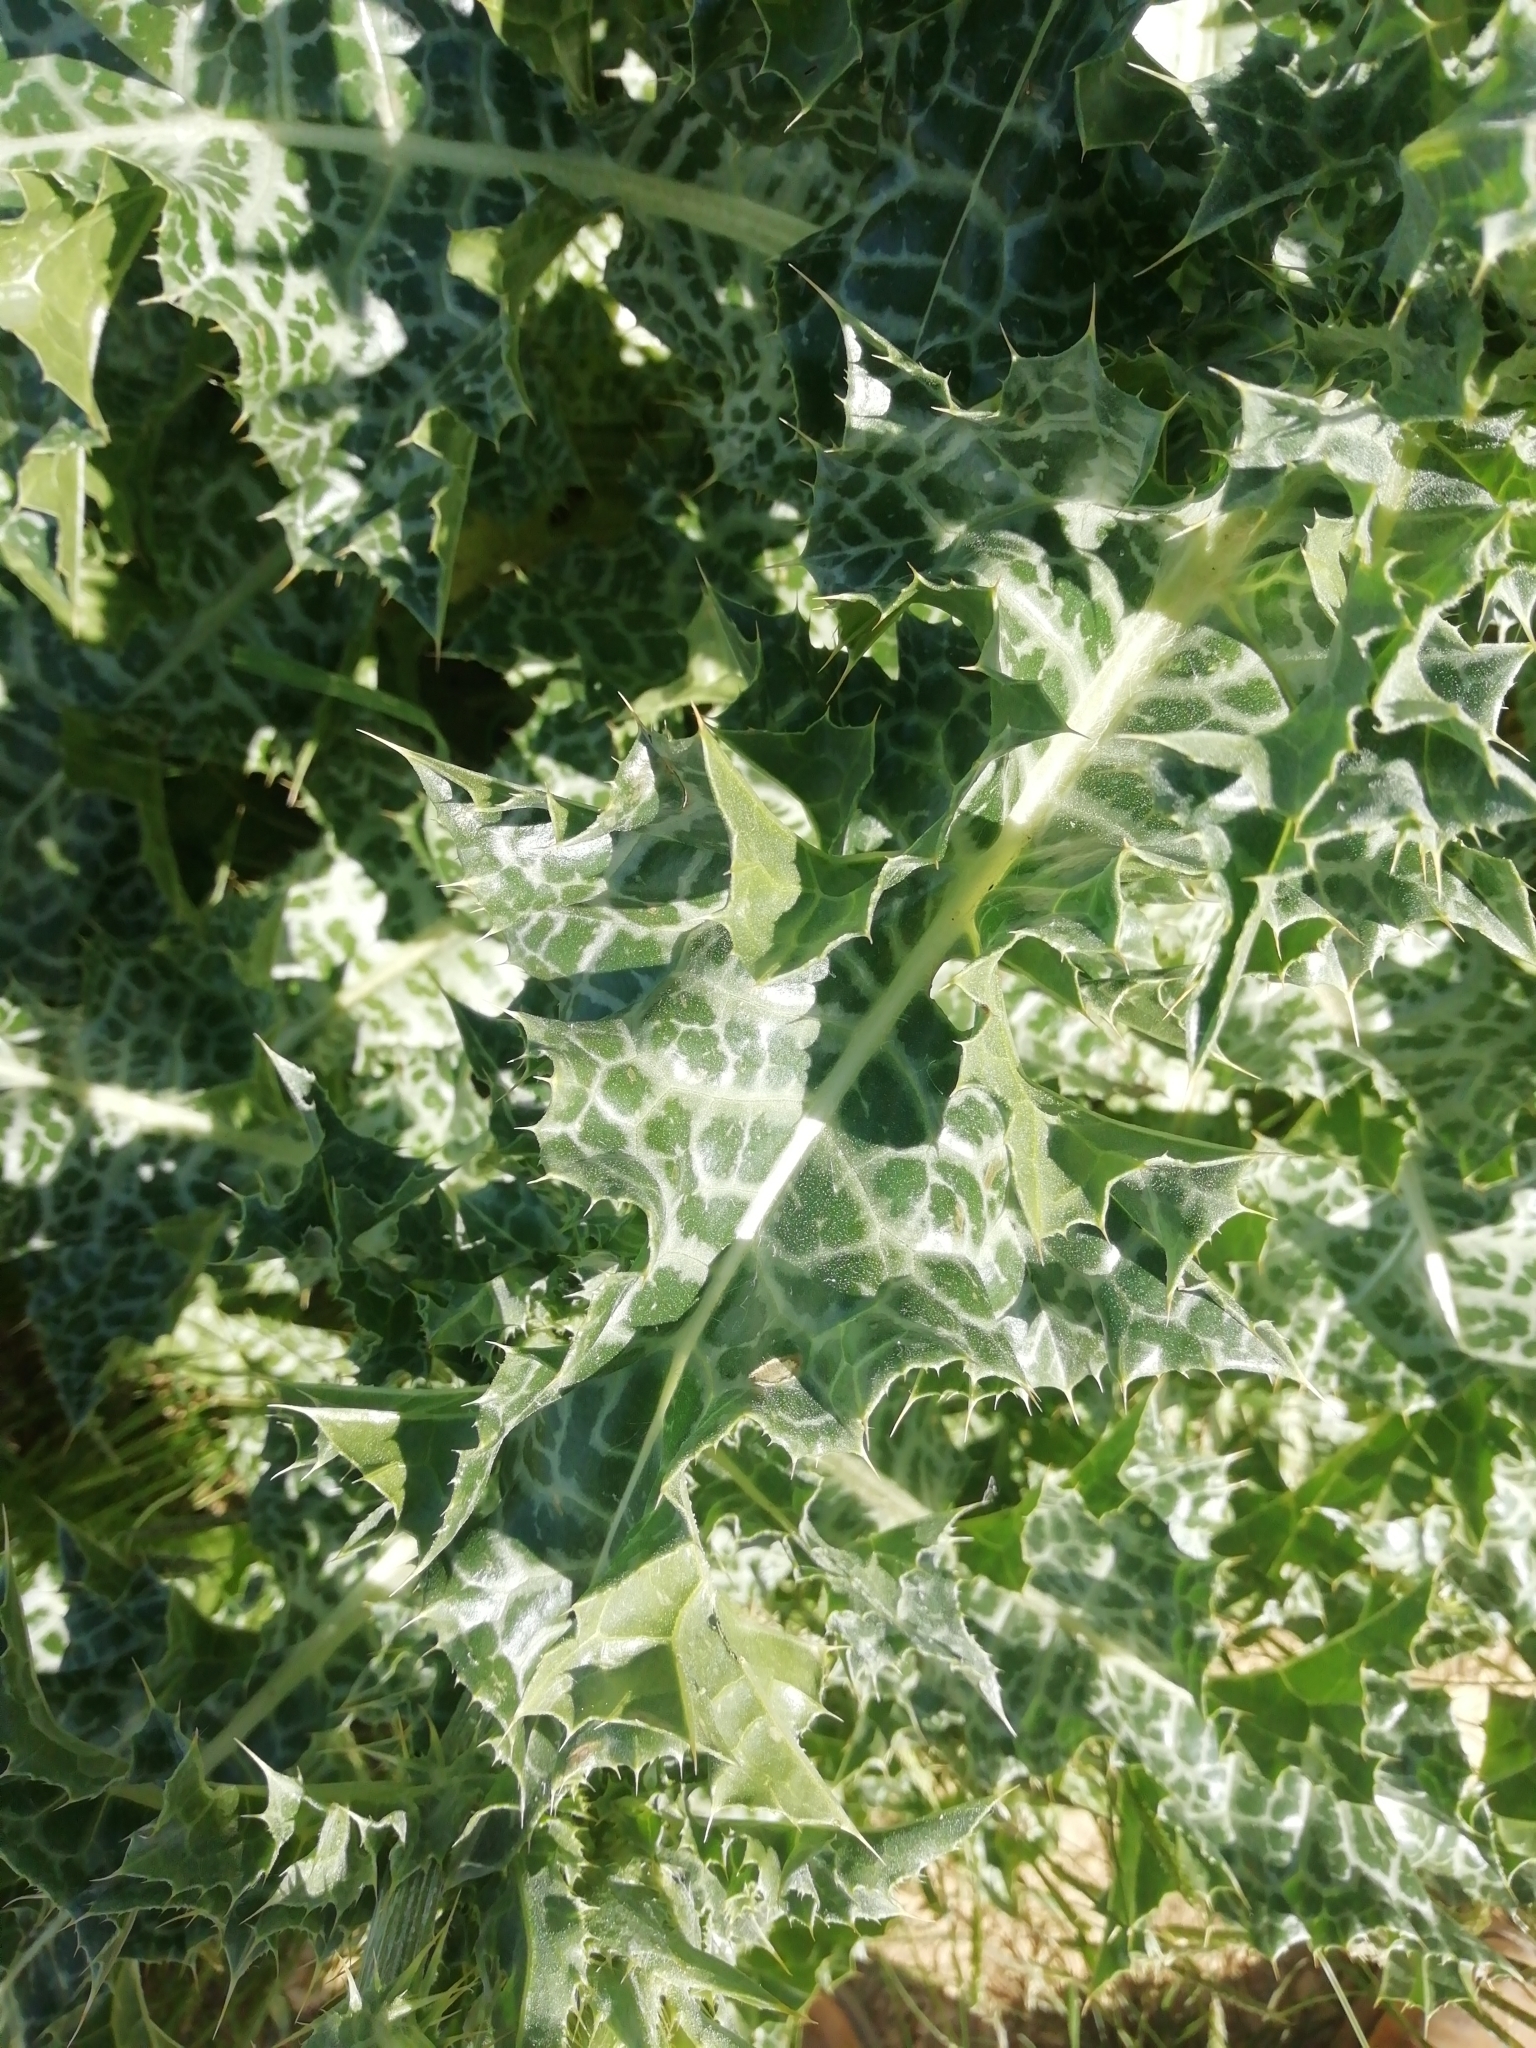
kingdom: Plantae
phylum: Tracheophyta
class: Magnoliopsida
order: Asterales
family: Asteraceae
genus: Silybum
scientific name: Silybum marianum
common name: Milk thistle
